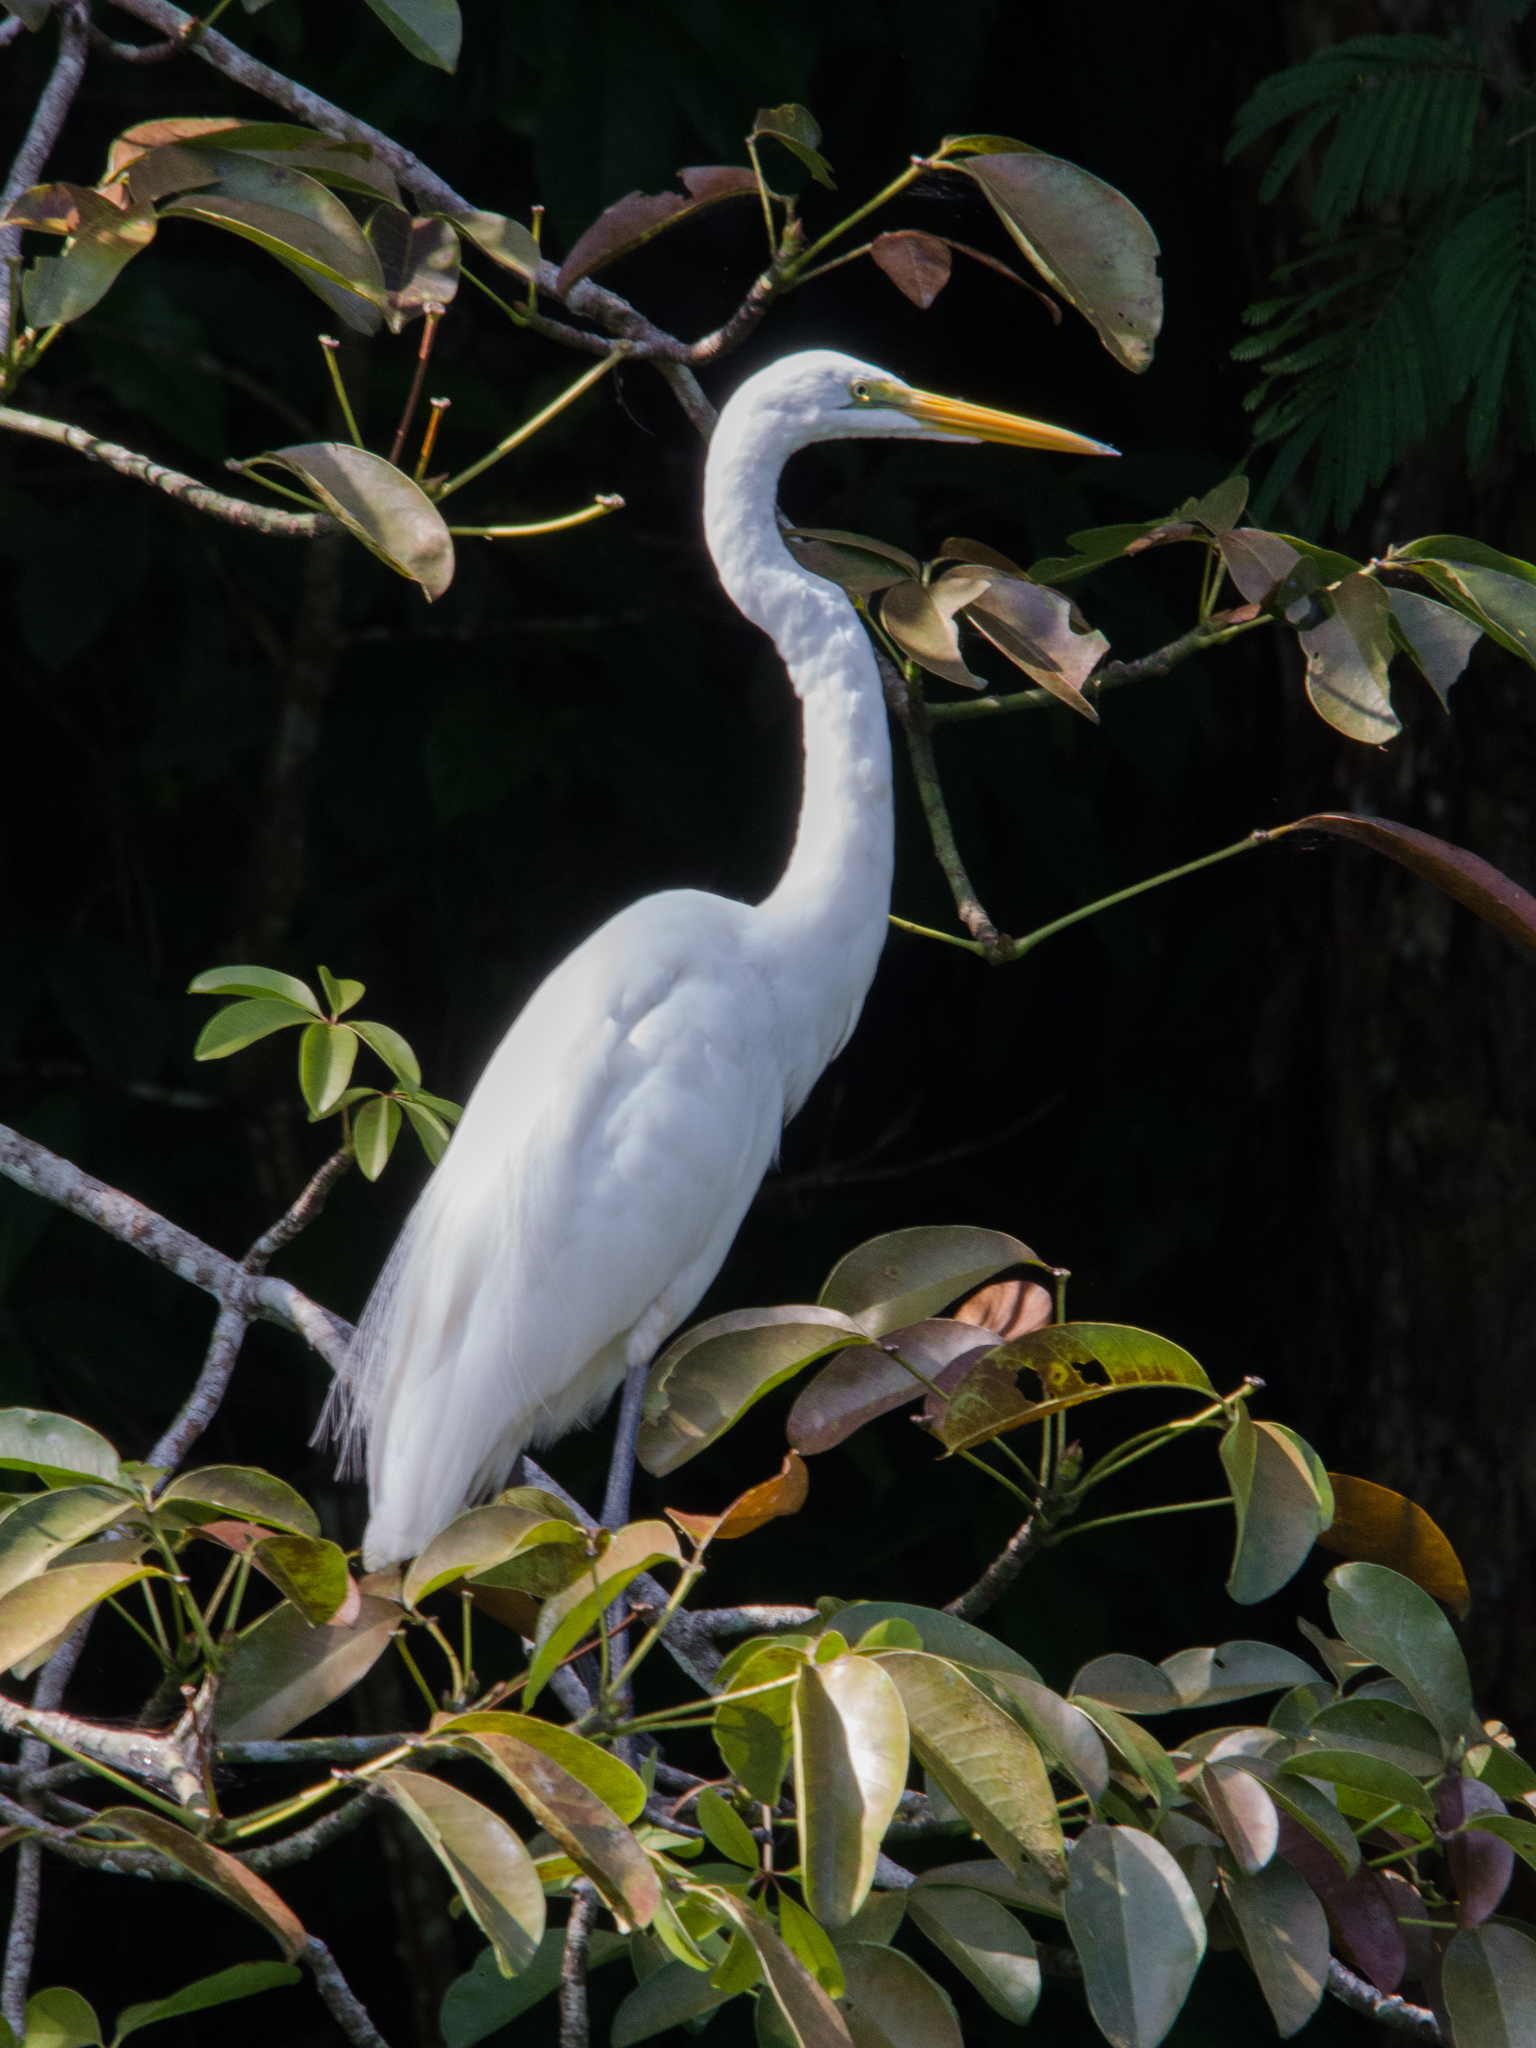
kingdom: Animalia
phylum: Chordata
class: Aves
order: Pelecaniformes
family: Ardeidae
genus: Ardea
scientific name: Ardea alba
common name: Great egret
